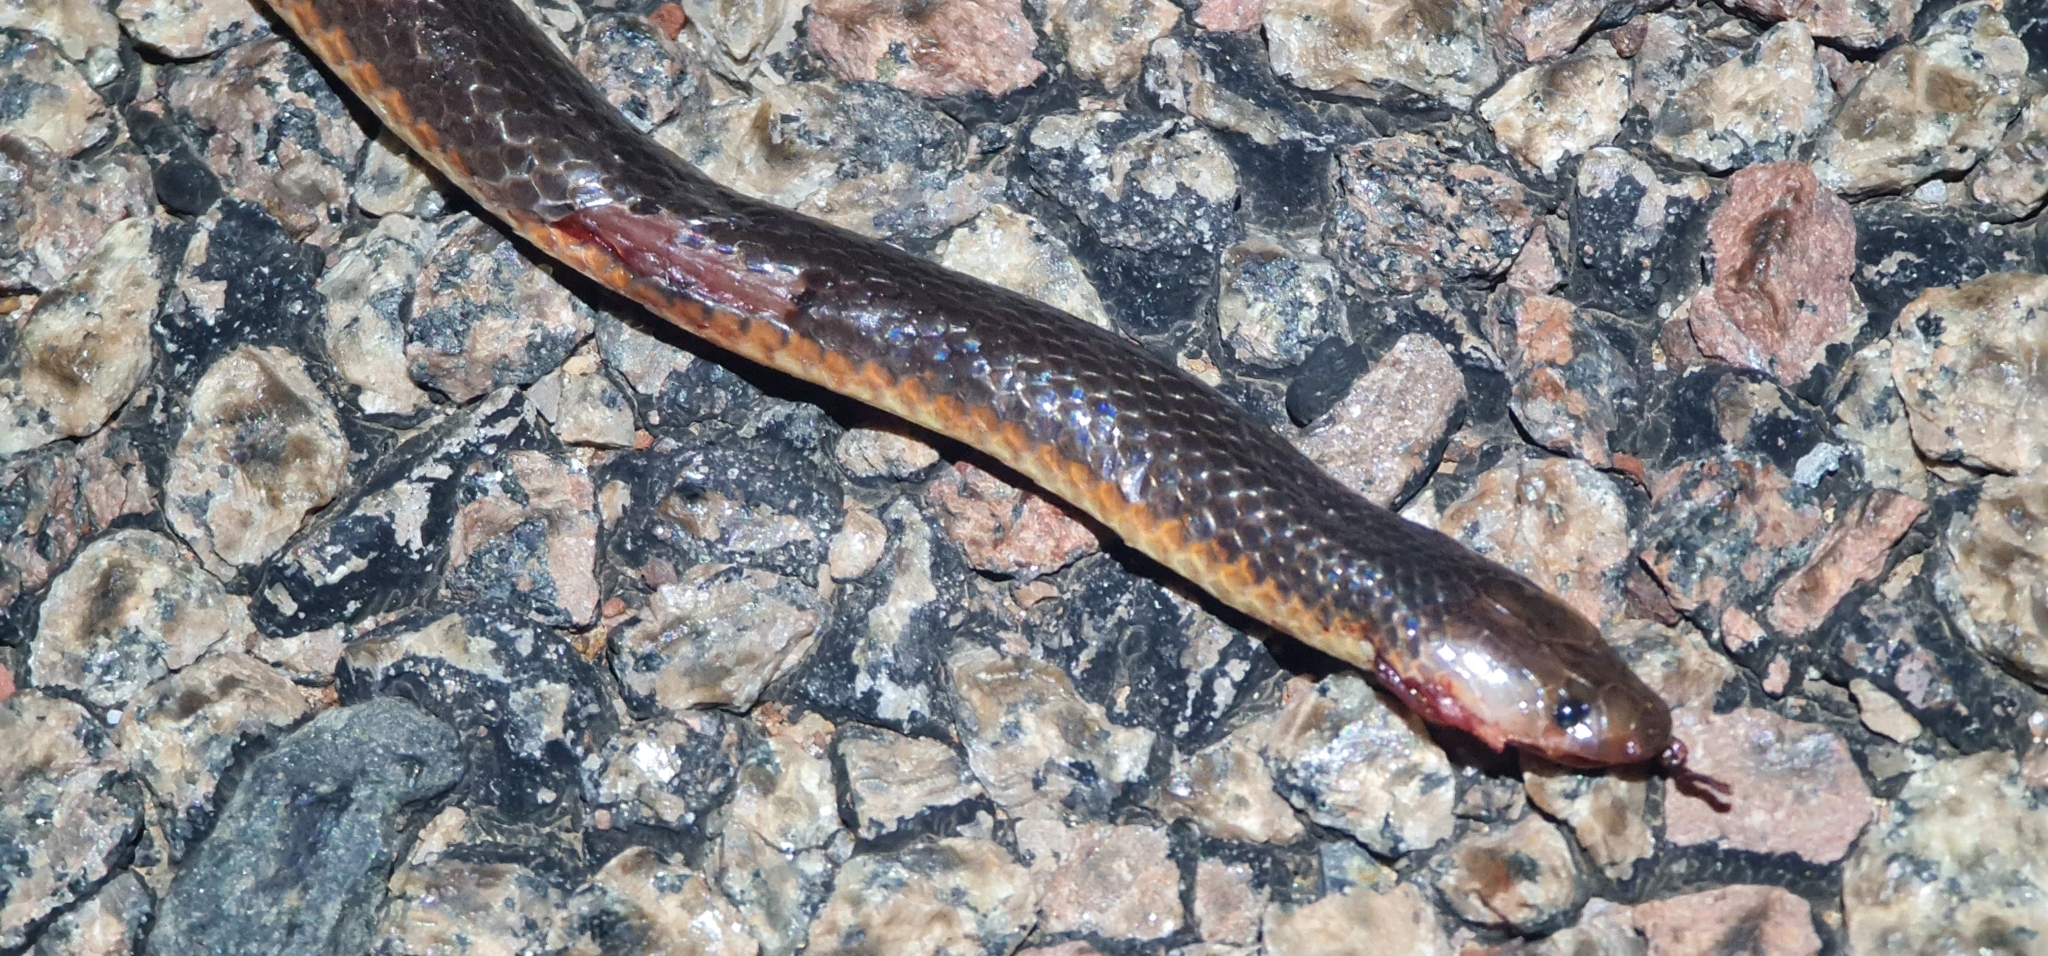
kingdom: Animalia
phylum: Chordata
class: Squamata
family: Elapidae
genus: Cryptophis
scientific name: Cryptophis pallidiceps
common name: Northern small-eyed snake
